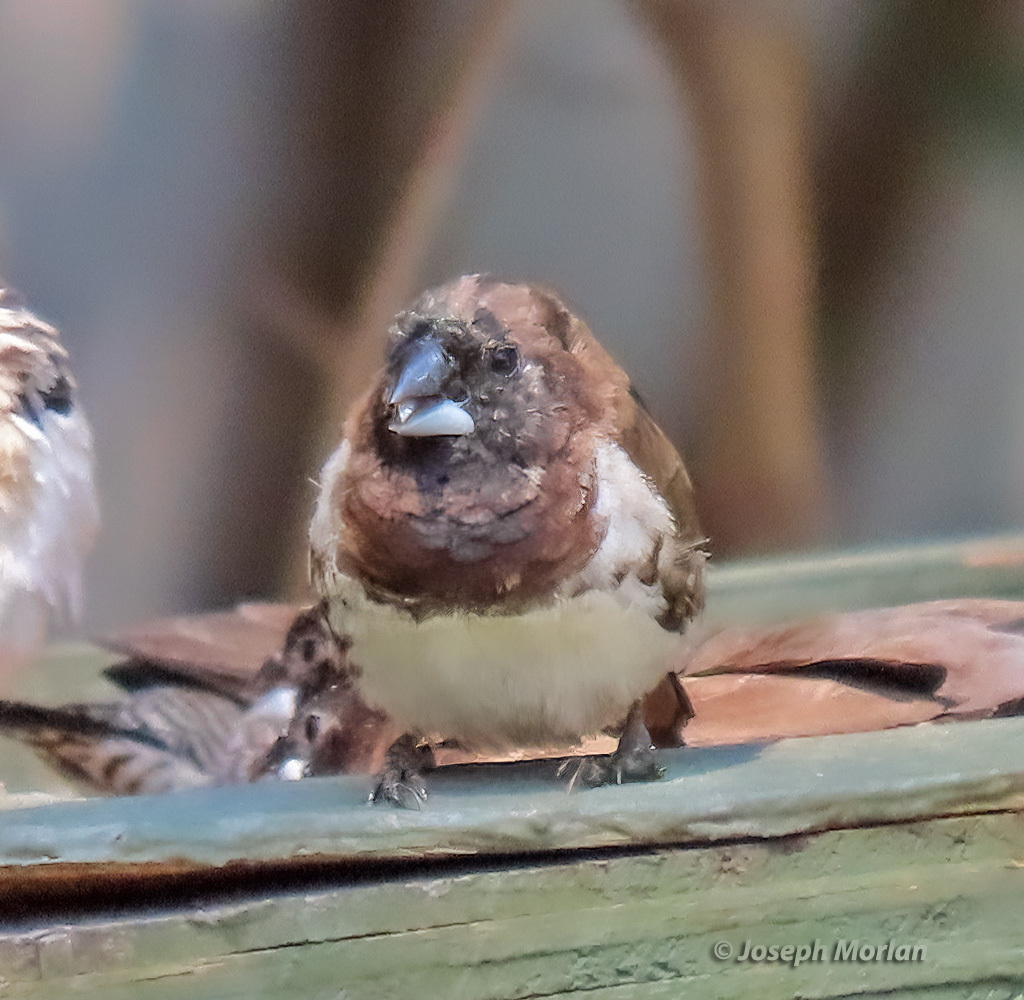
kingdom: Animalia
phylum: Chordata
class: Aves
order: Passeriformes
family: Estrildidae
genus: Lonchura
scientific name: Lonchura cucullata
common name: Bronze mannikin
